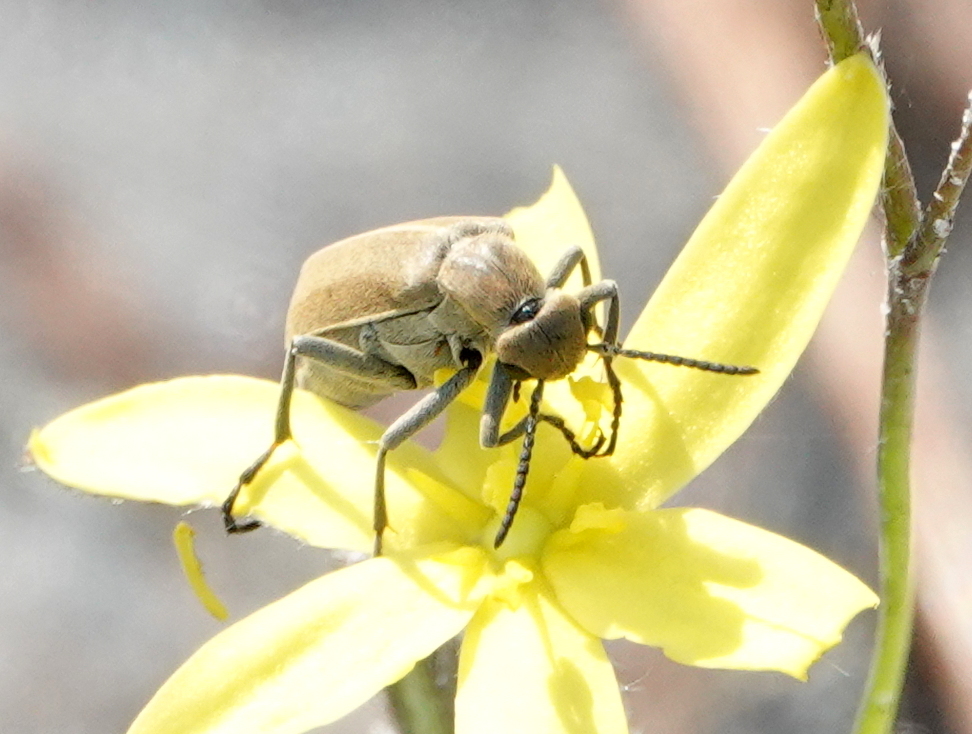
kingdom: Animalia
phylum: Arthropoda
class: Insecta
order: Coleoptera
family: Meloidae
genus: Epicauta
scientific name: Epicauta strigosa
